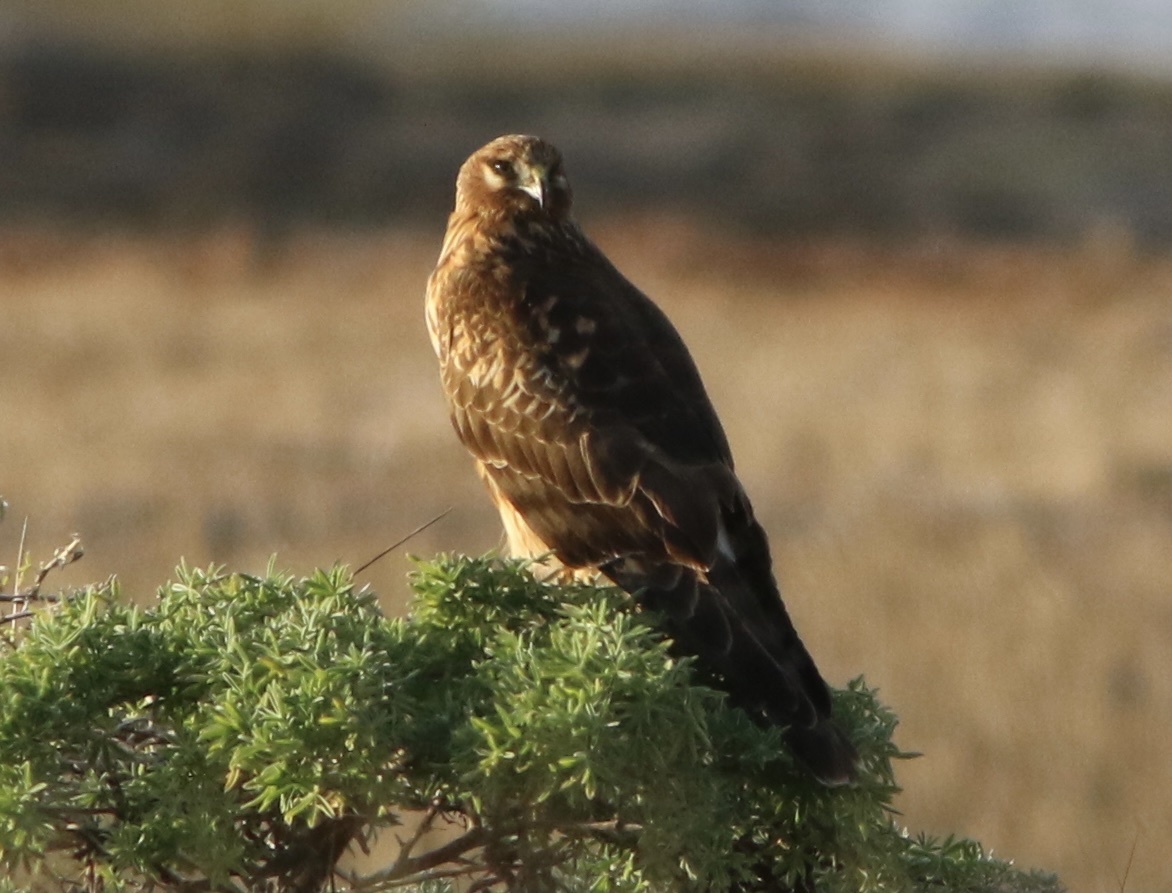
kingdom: Animalia
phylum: Chordata
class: Aves
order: Accipitriformes
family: Accipitridae
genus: Circus
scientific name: Circus cyaneus
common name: Hen harrier
